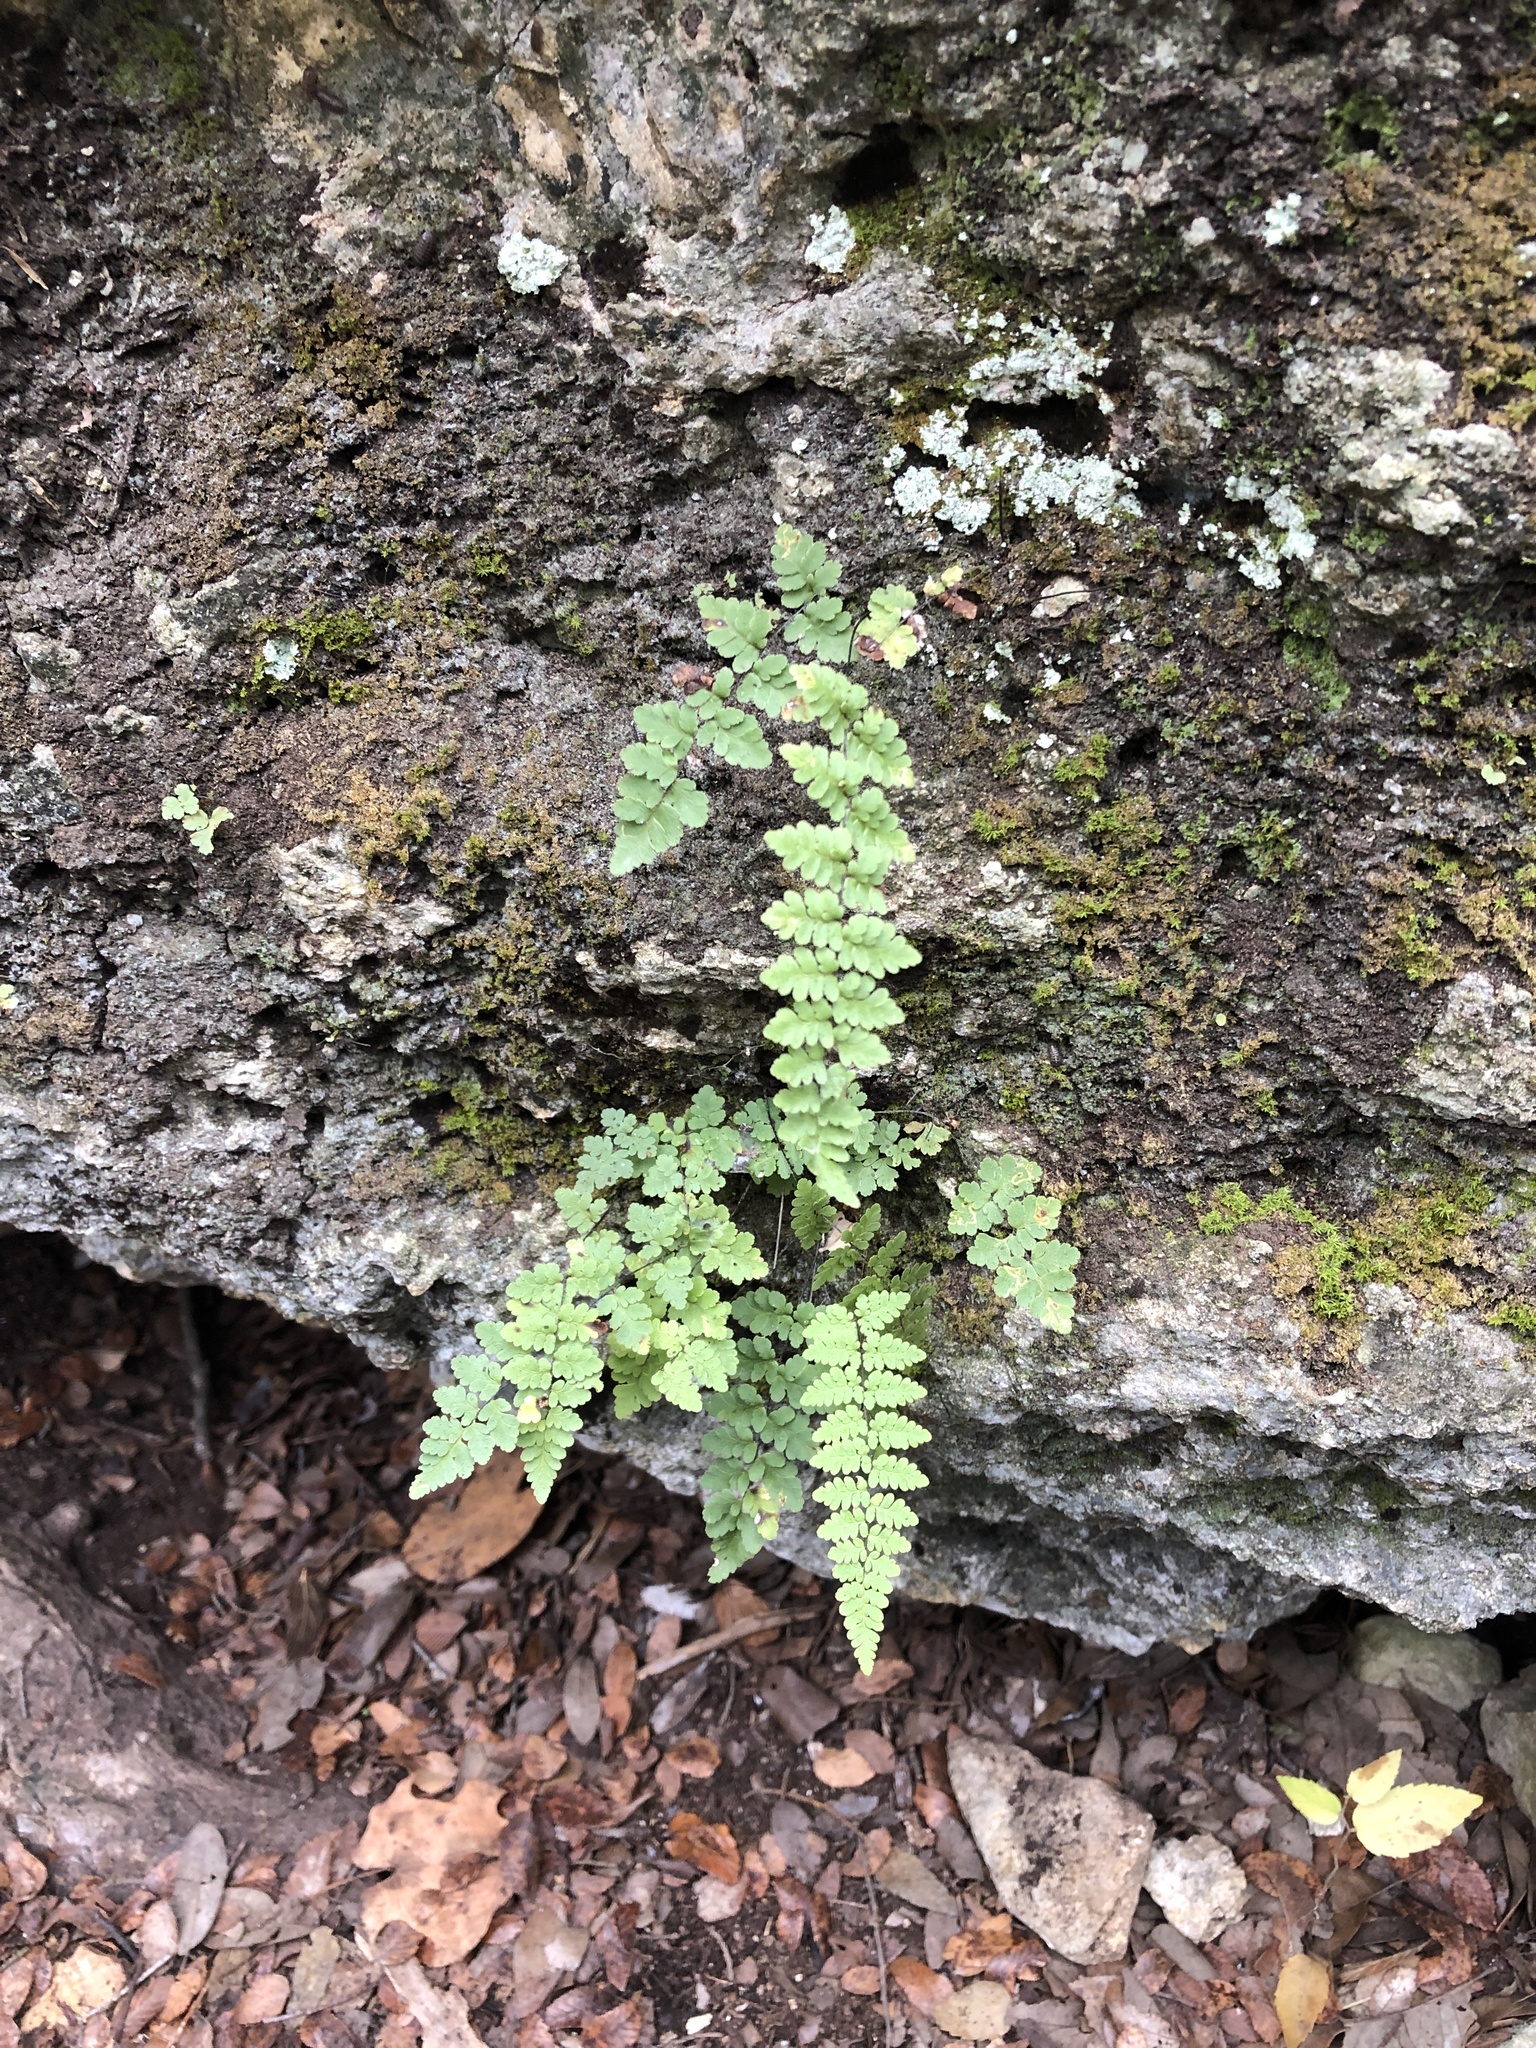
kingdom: Plantae
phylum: Tracheophyta
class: Polypodiopsida
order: Polypodiales
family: Pteridaceae
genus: Myriopteris
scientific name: Myriopteris alabamensis
